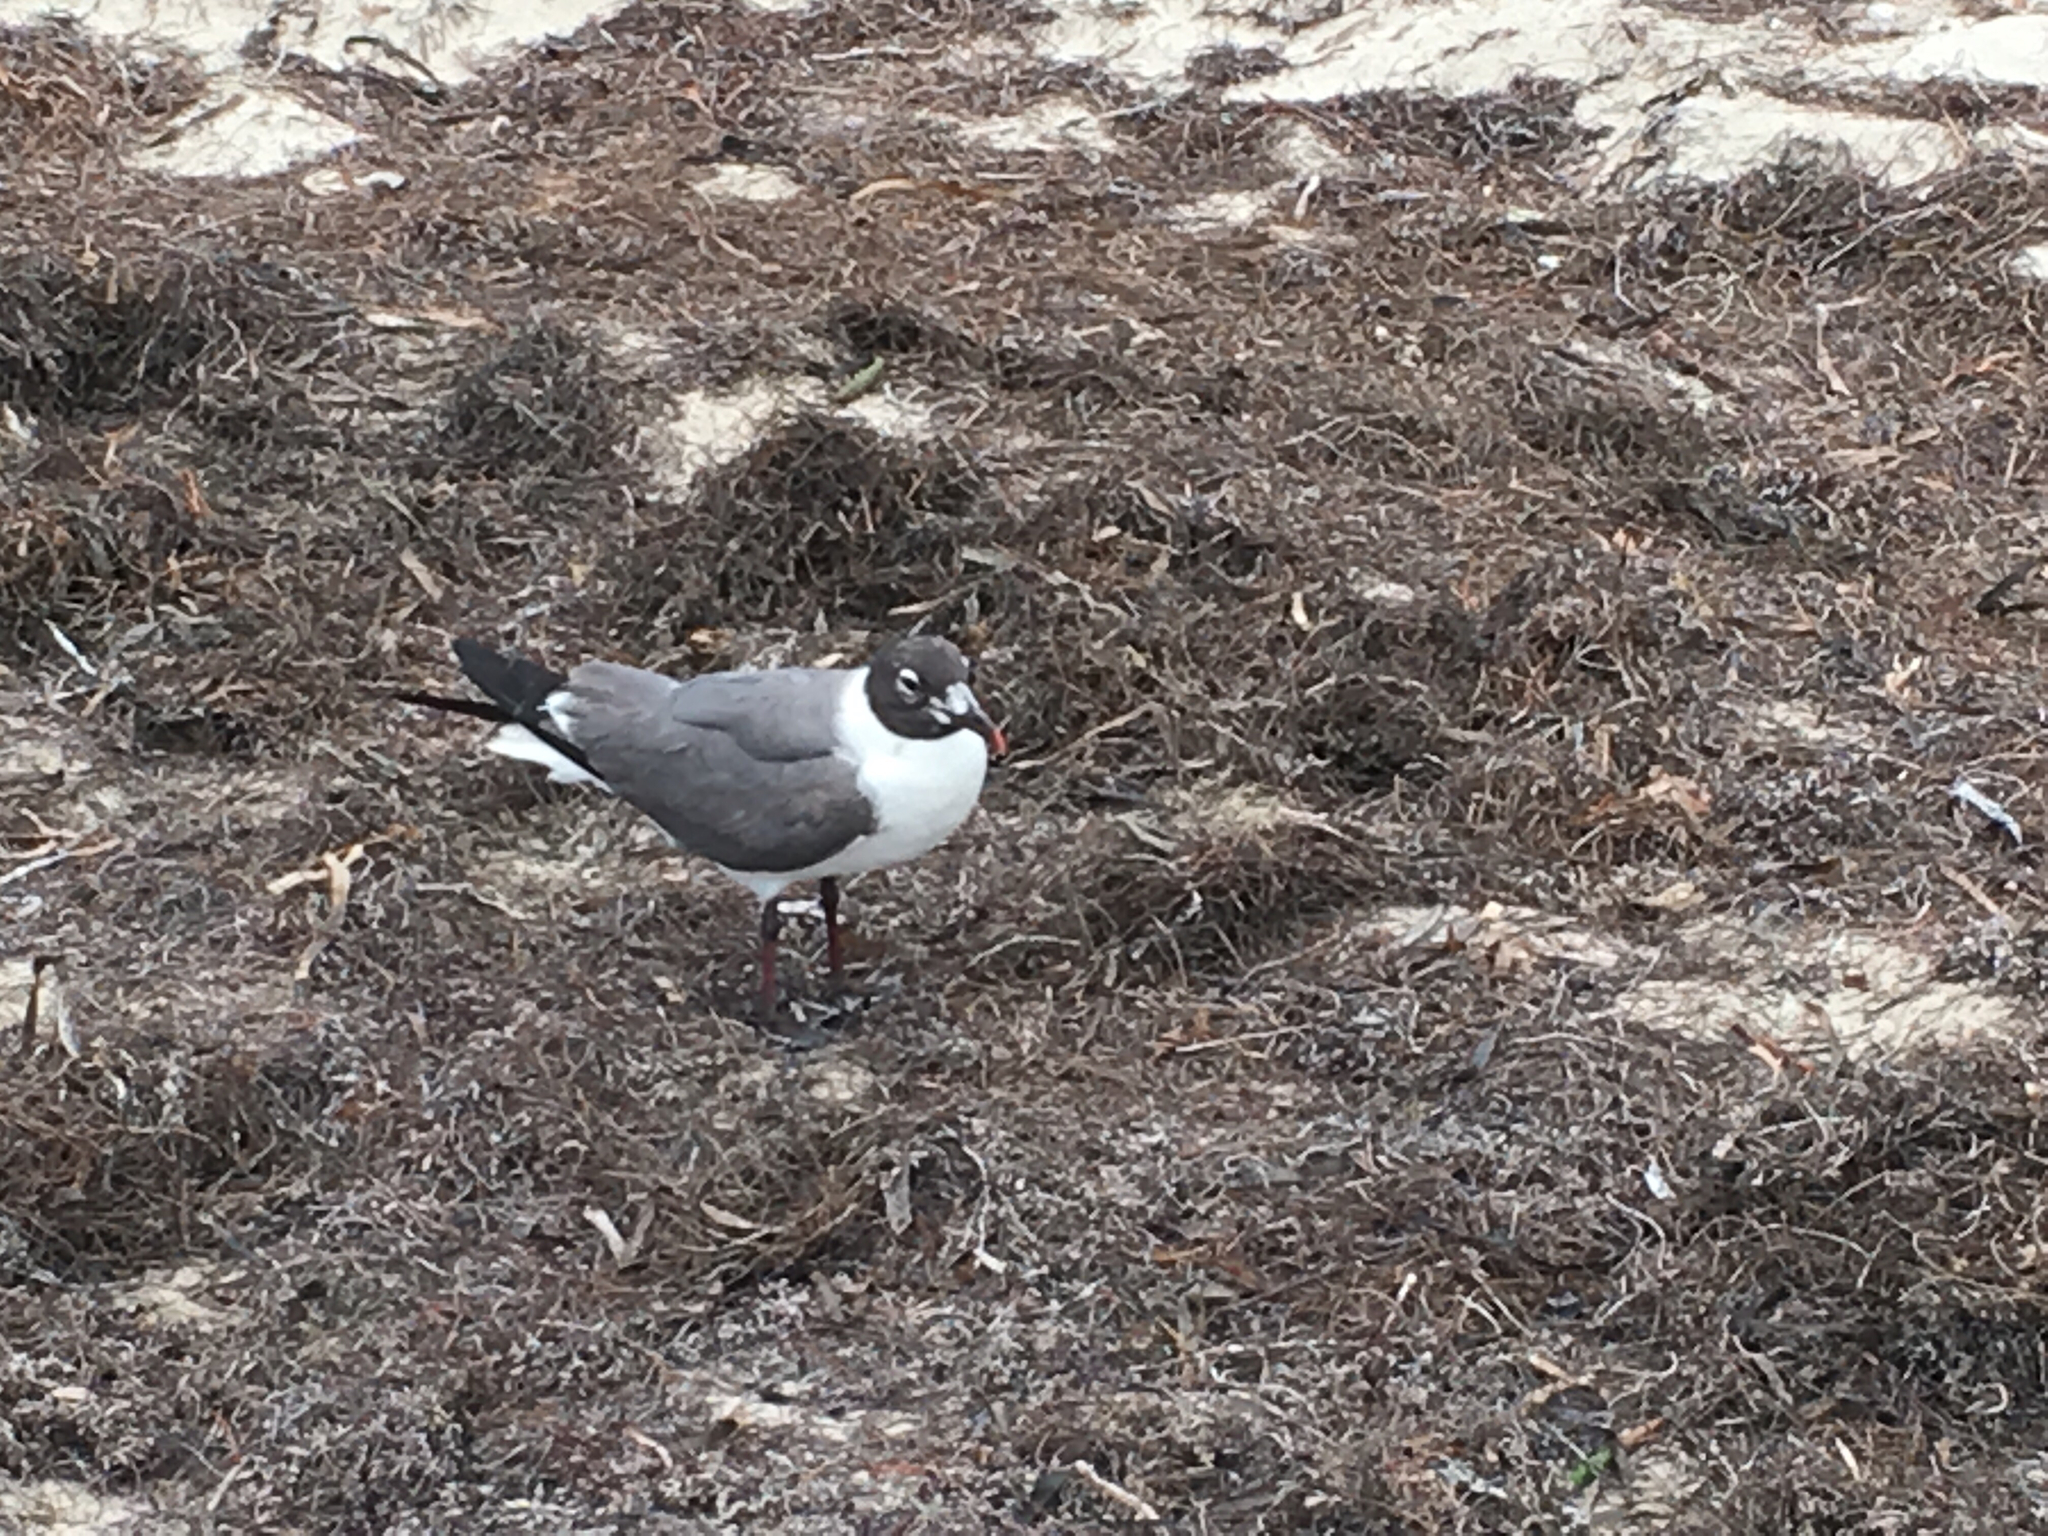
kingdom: Animalia
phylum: Chordata
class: Aves
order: Charadriiformes
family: Laridae
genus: Leucophaeus
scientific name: Leucophaeus atricilla
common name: Laughing gull
